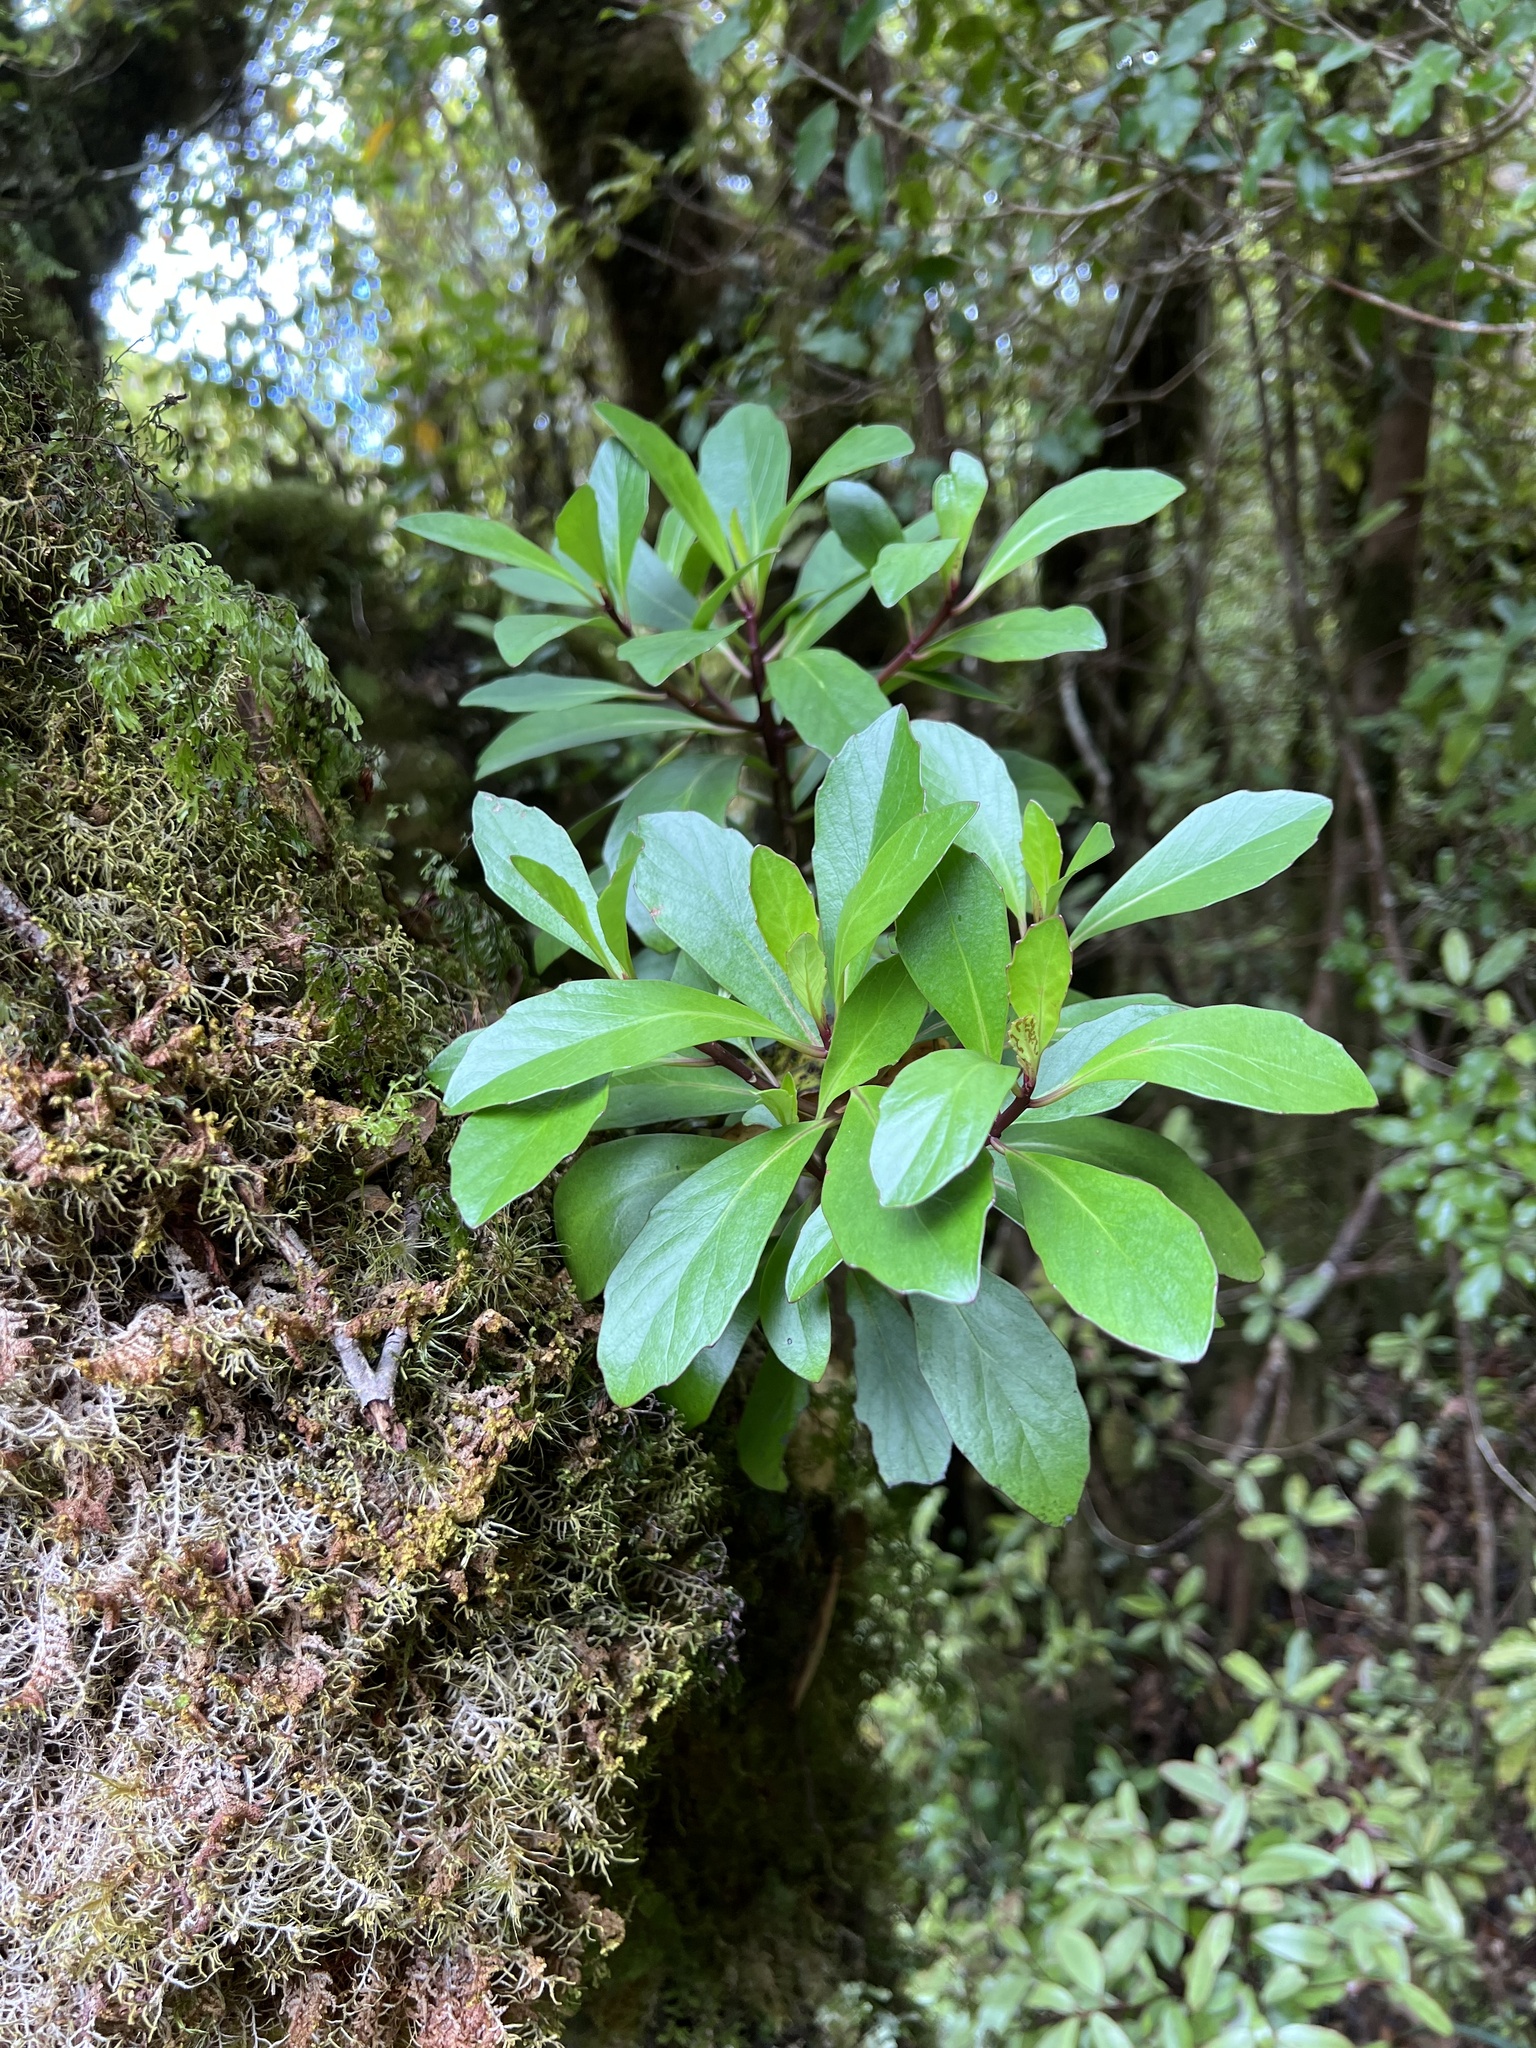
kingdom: Plantae
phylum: Tracheophyta
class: Magnoliopsida
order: Asterales
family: Asteraceae
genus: Brachyglottis
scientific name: Brachyglottis kirkii
